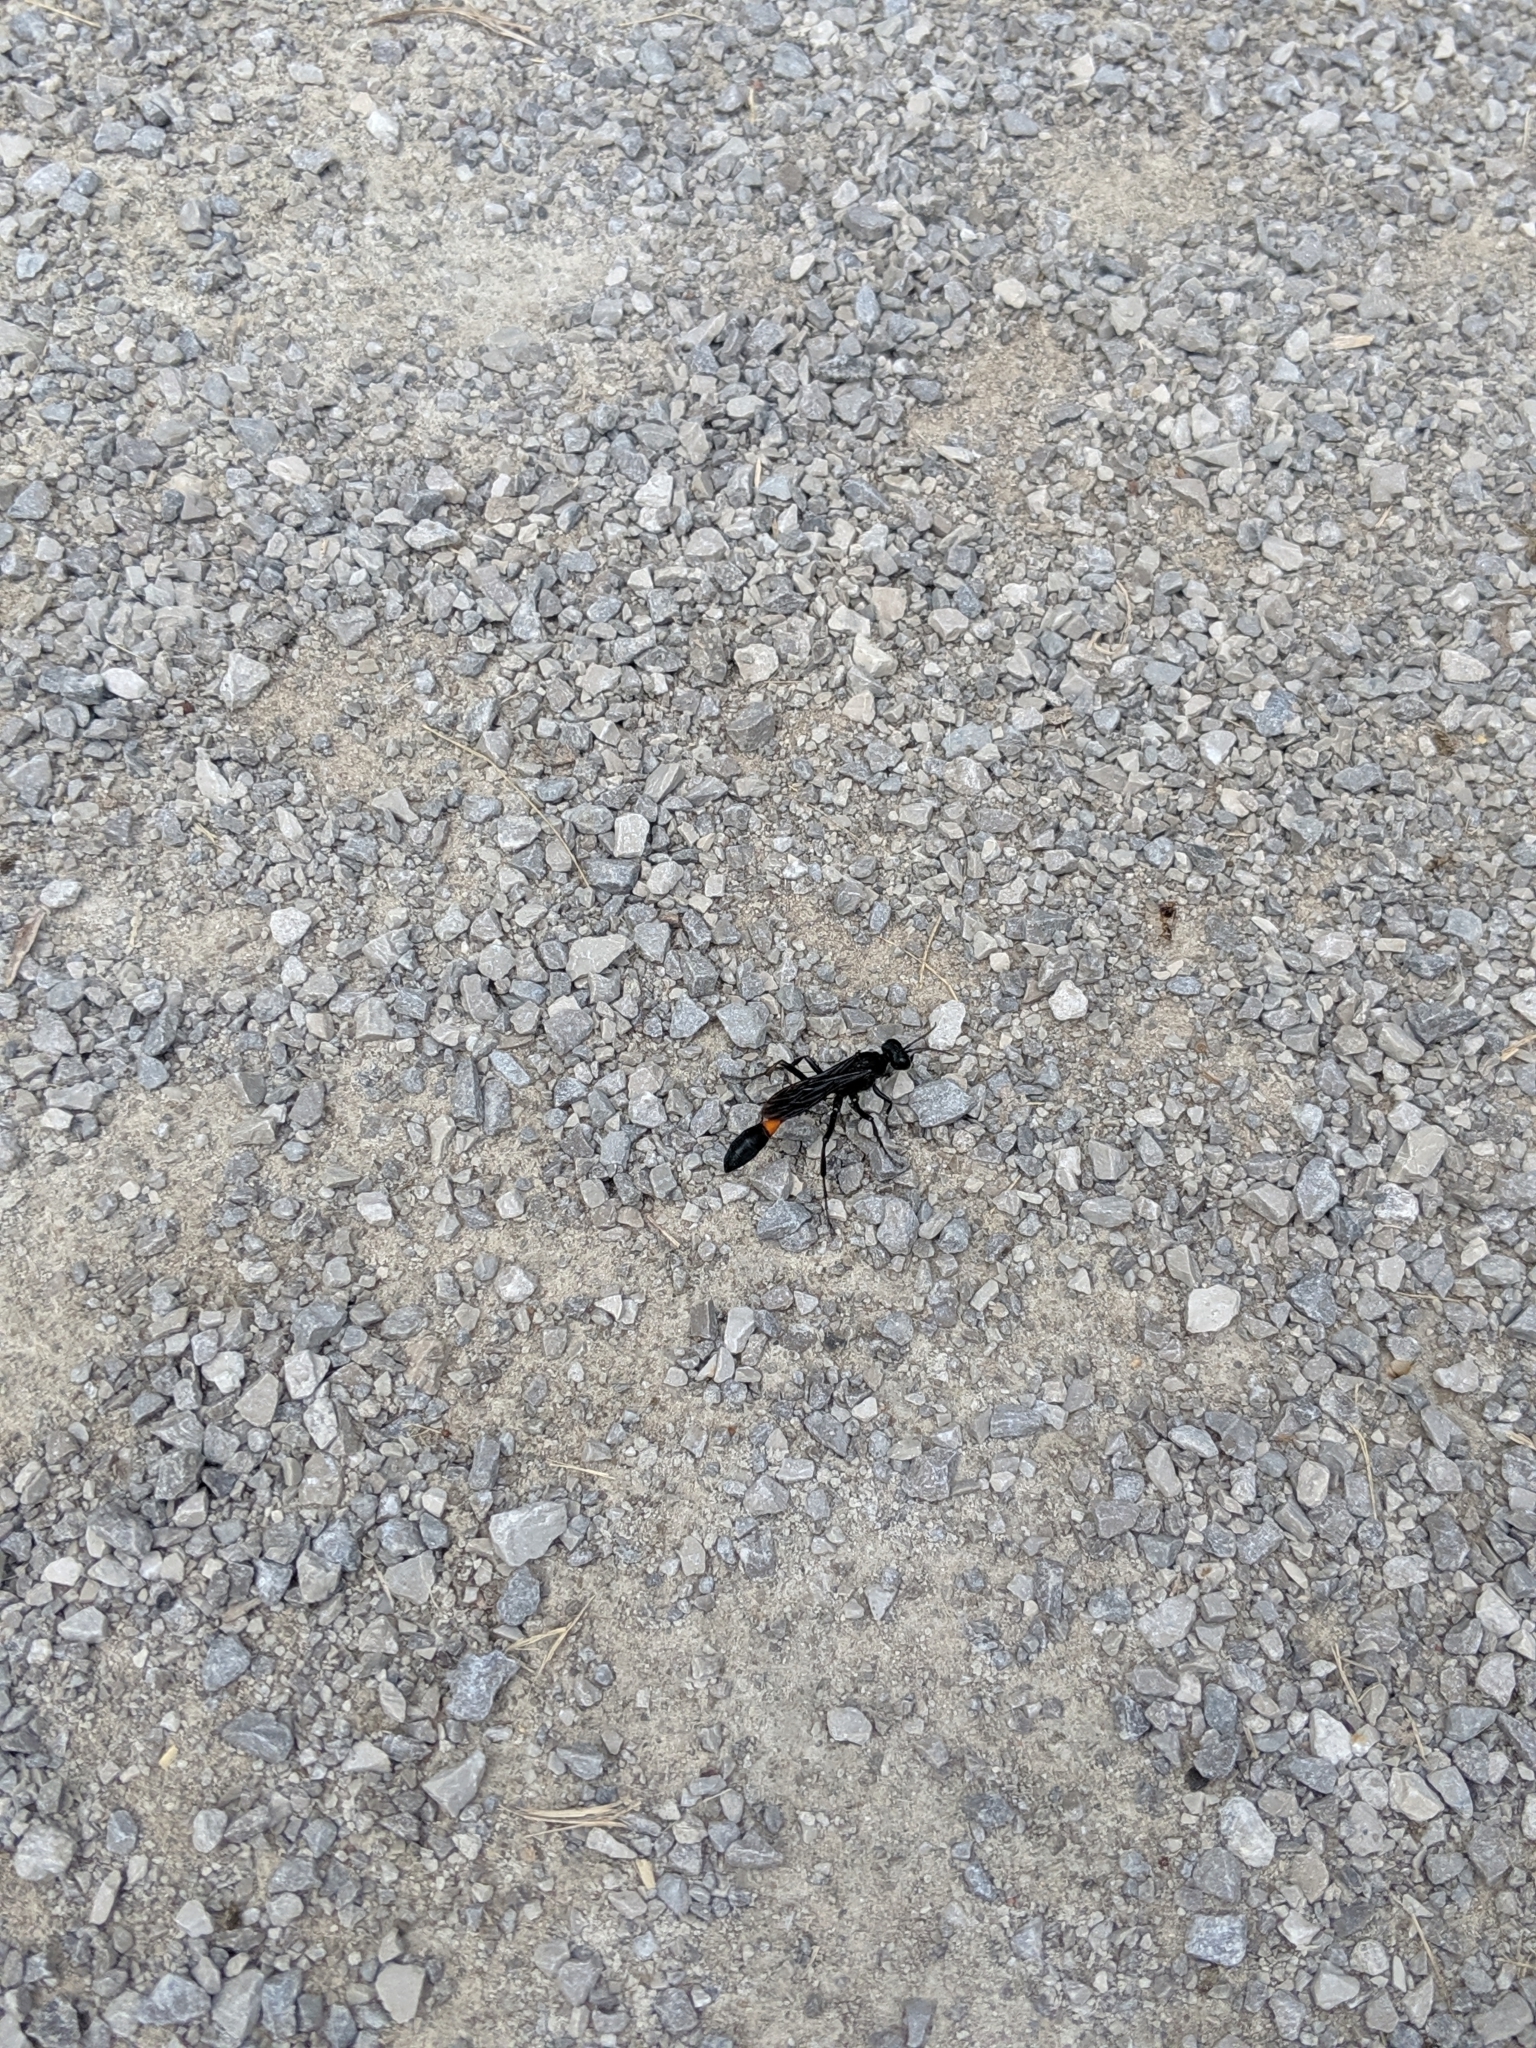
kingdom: Animalia
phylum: Arthropoda
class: Insecta
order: Hymenoptera
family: Sphecidae
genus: Ammophila
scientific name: Ammophila nigricans
